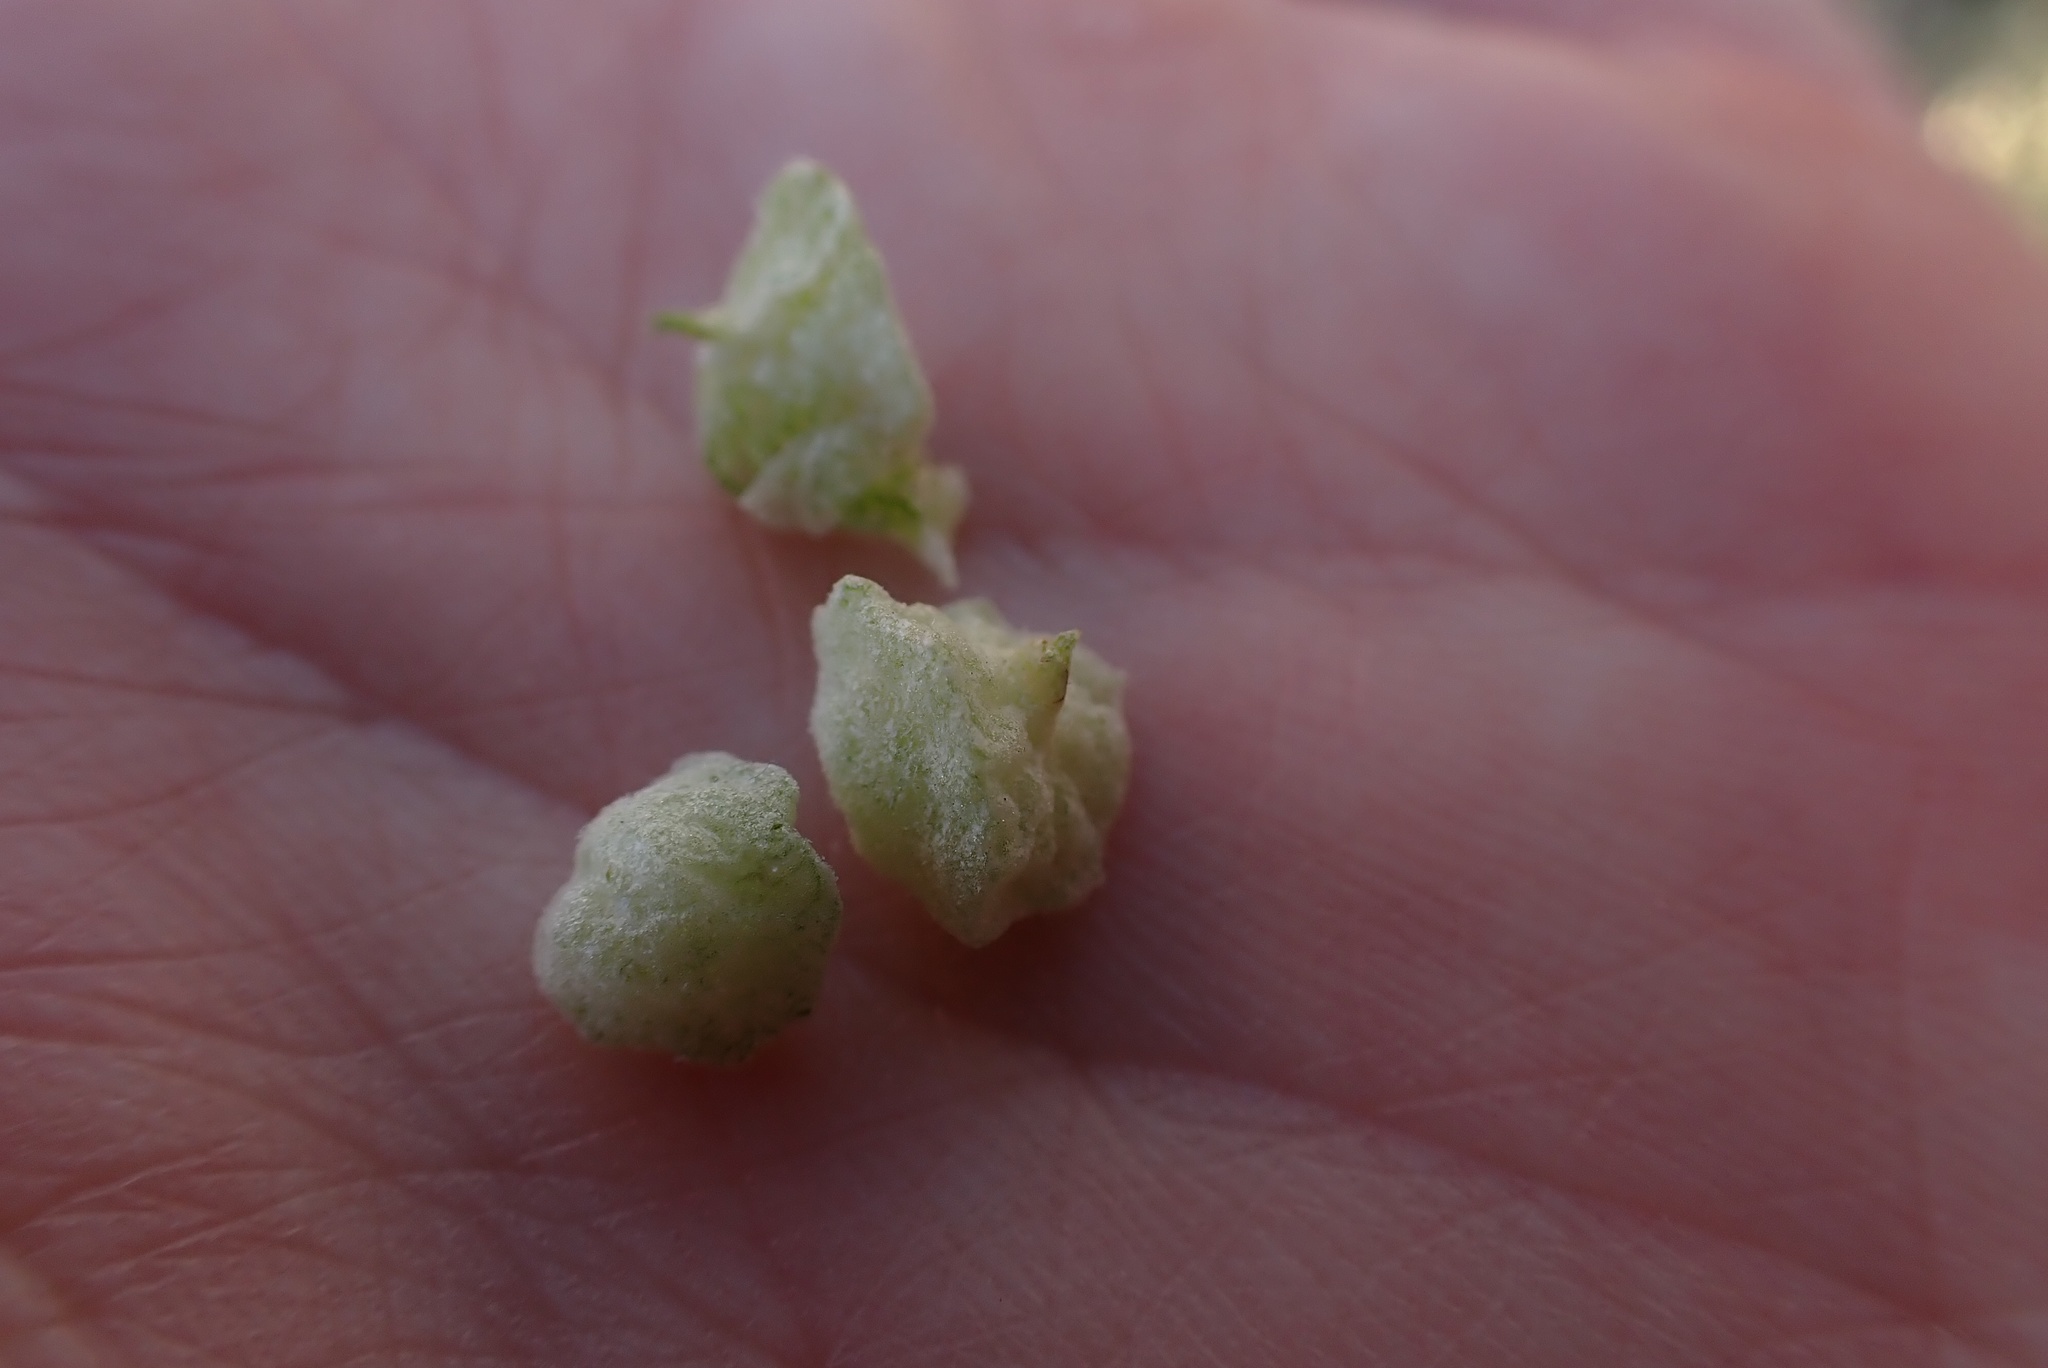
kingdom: Plantae
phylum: Tracheophyta
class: Magnoliopsida
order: Caryophyllales
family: Amaranthaceae
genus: Atriplex
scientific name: Atriplex lindleyi
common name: Lindley's saltbush
